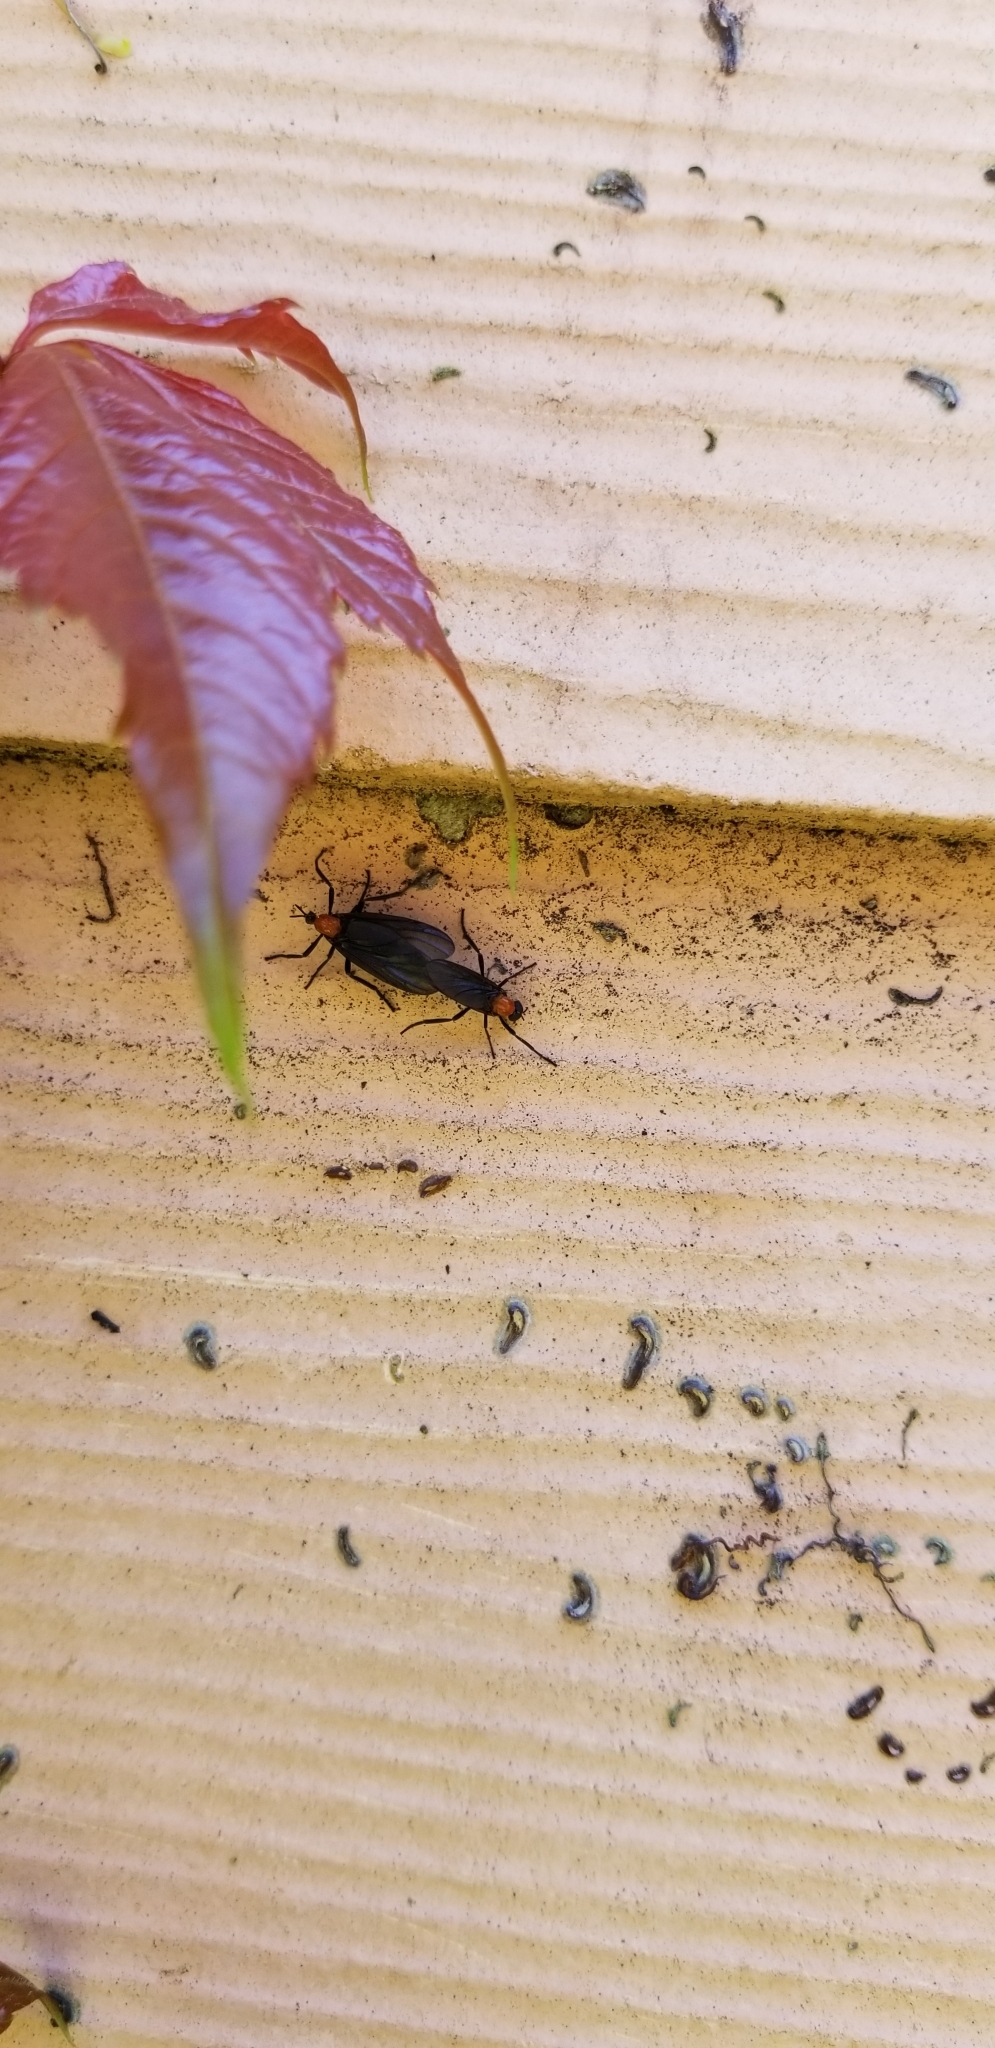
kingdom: Animalia
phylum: Arthropoda
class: Insecta
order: Diptera
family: Bibionidae
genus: Plecia
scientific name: Plecia nearctica
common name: March fly
